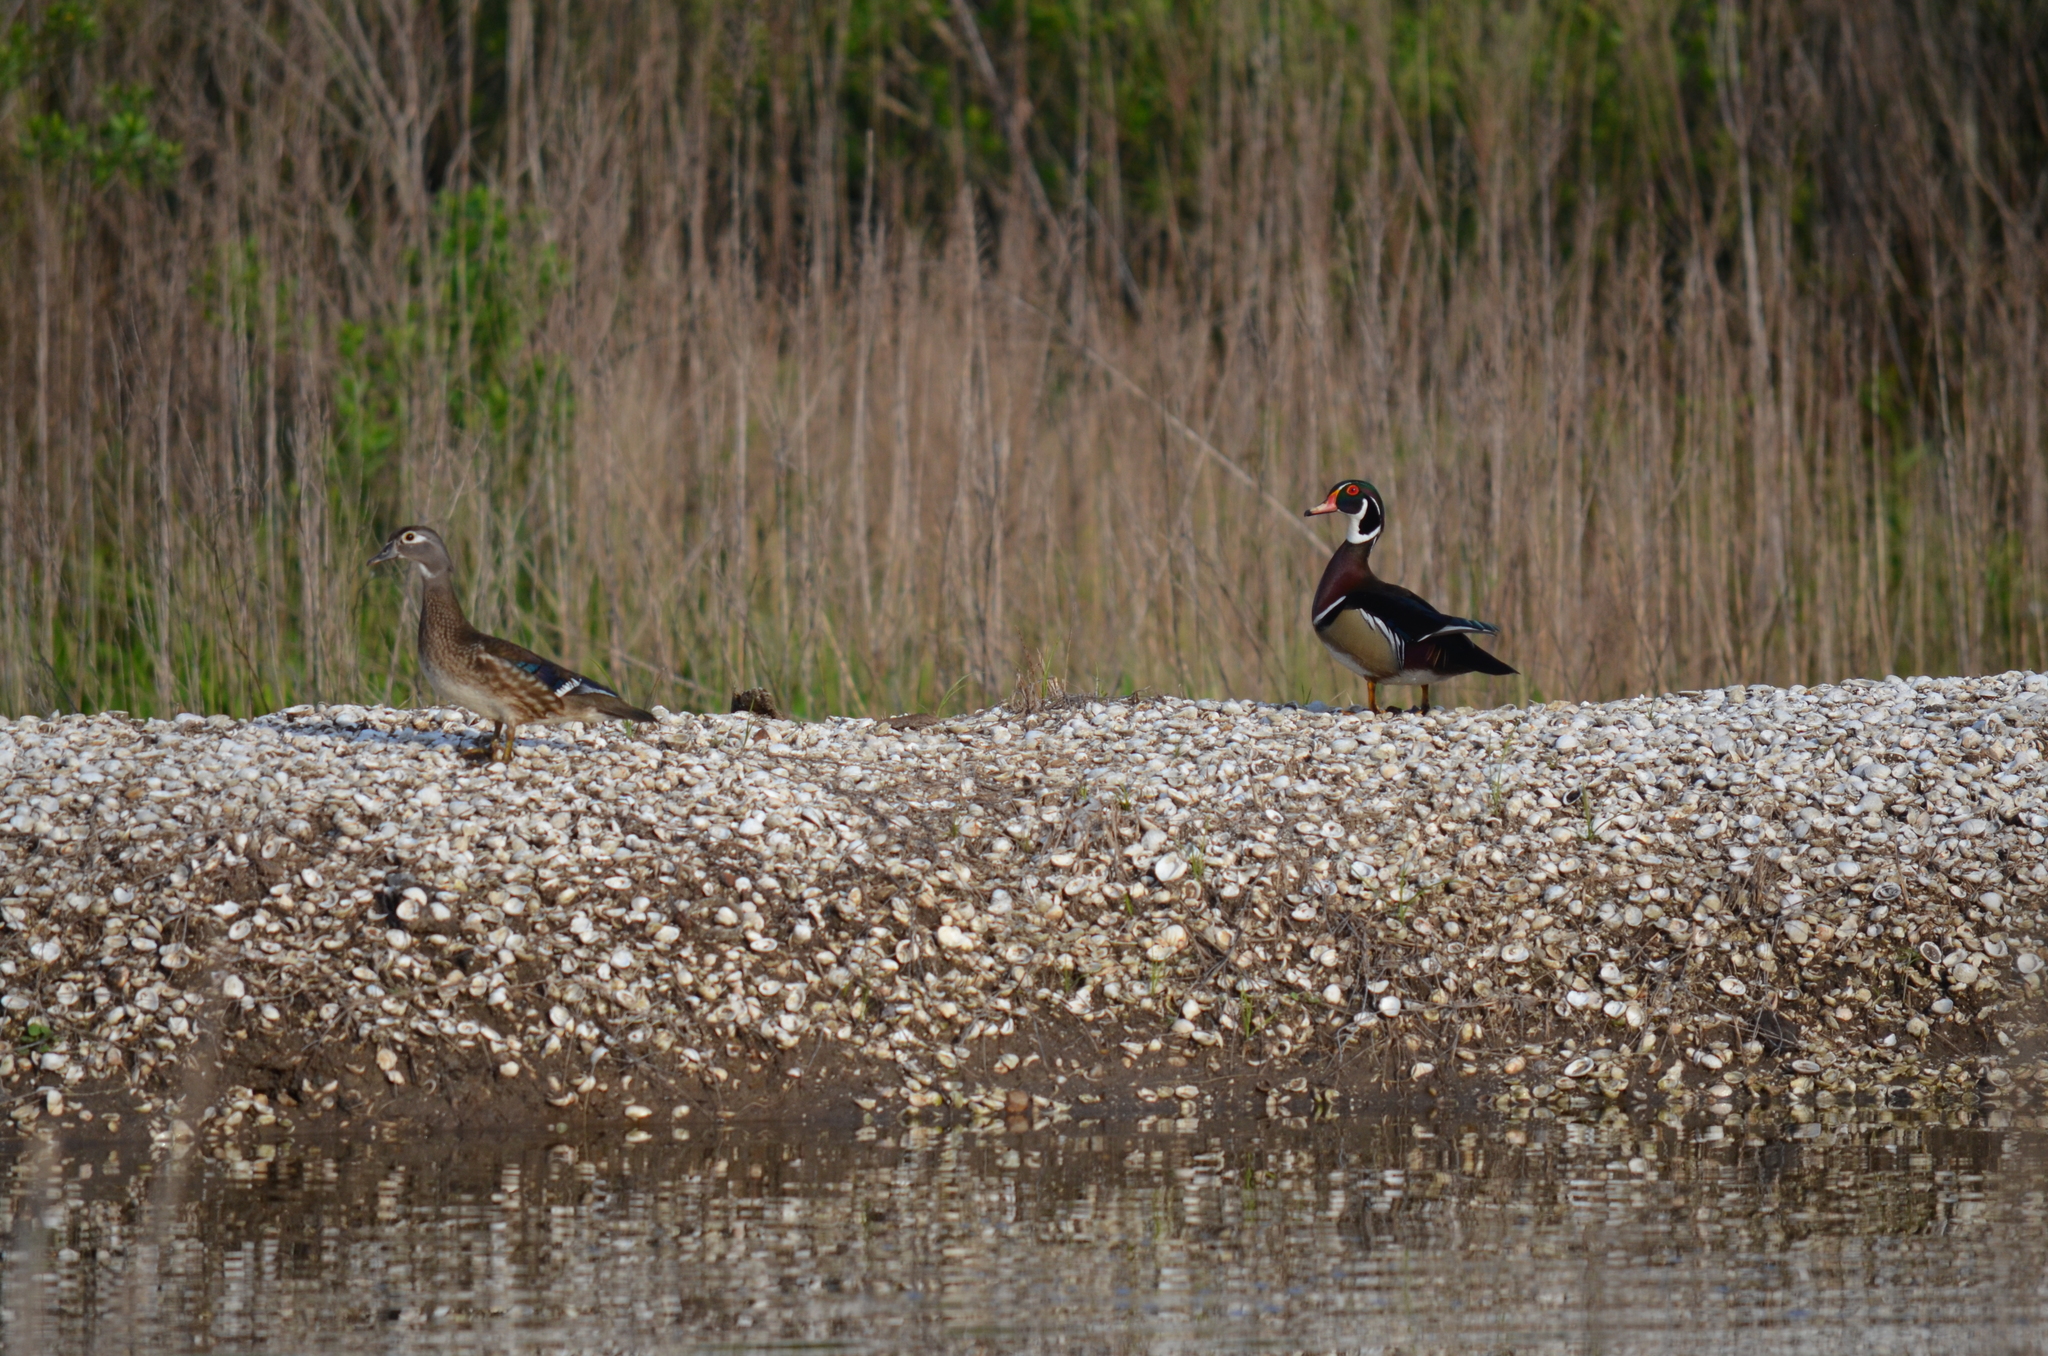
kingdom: Animalia
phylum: Chordata
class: Aves
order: Anseriformes
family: Anatidae
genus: Aix
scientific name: Aix sponsa
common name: Wood duck
